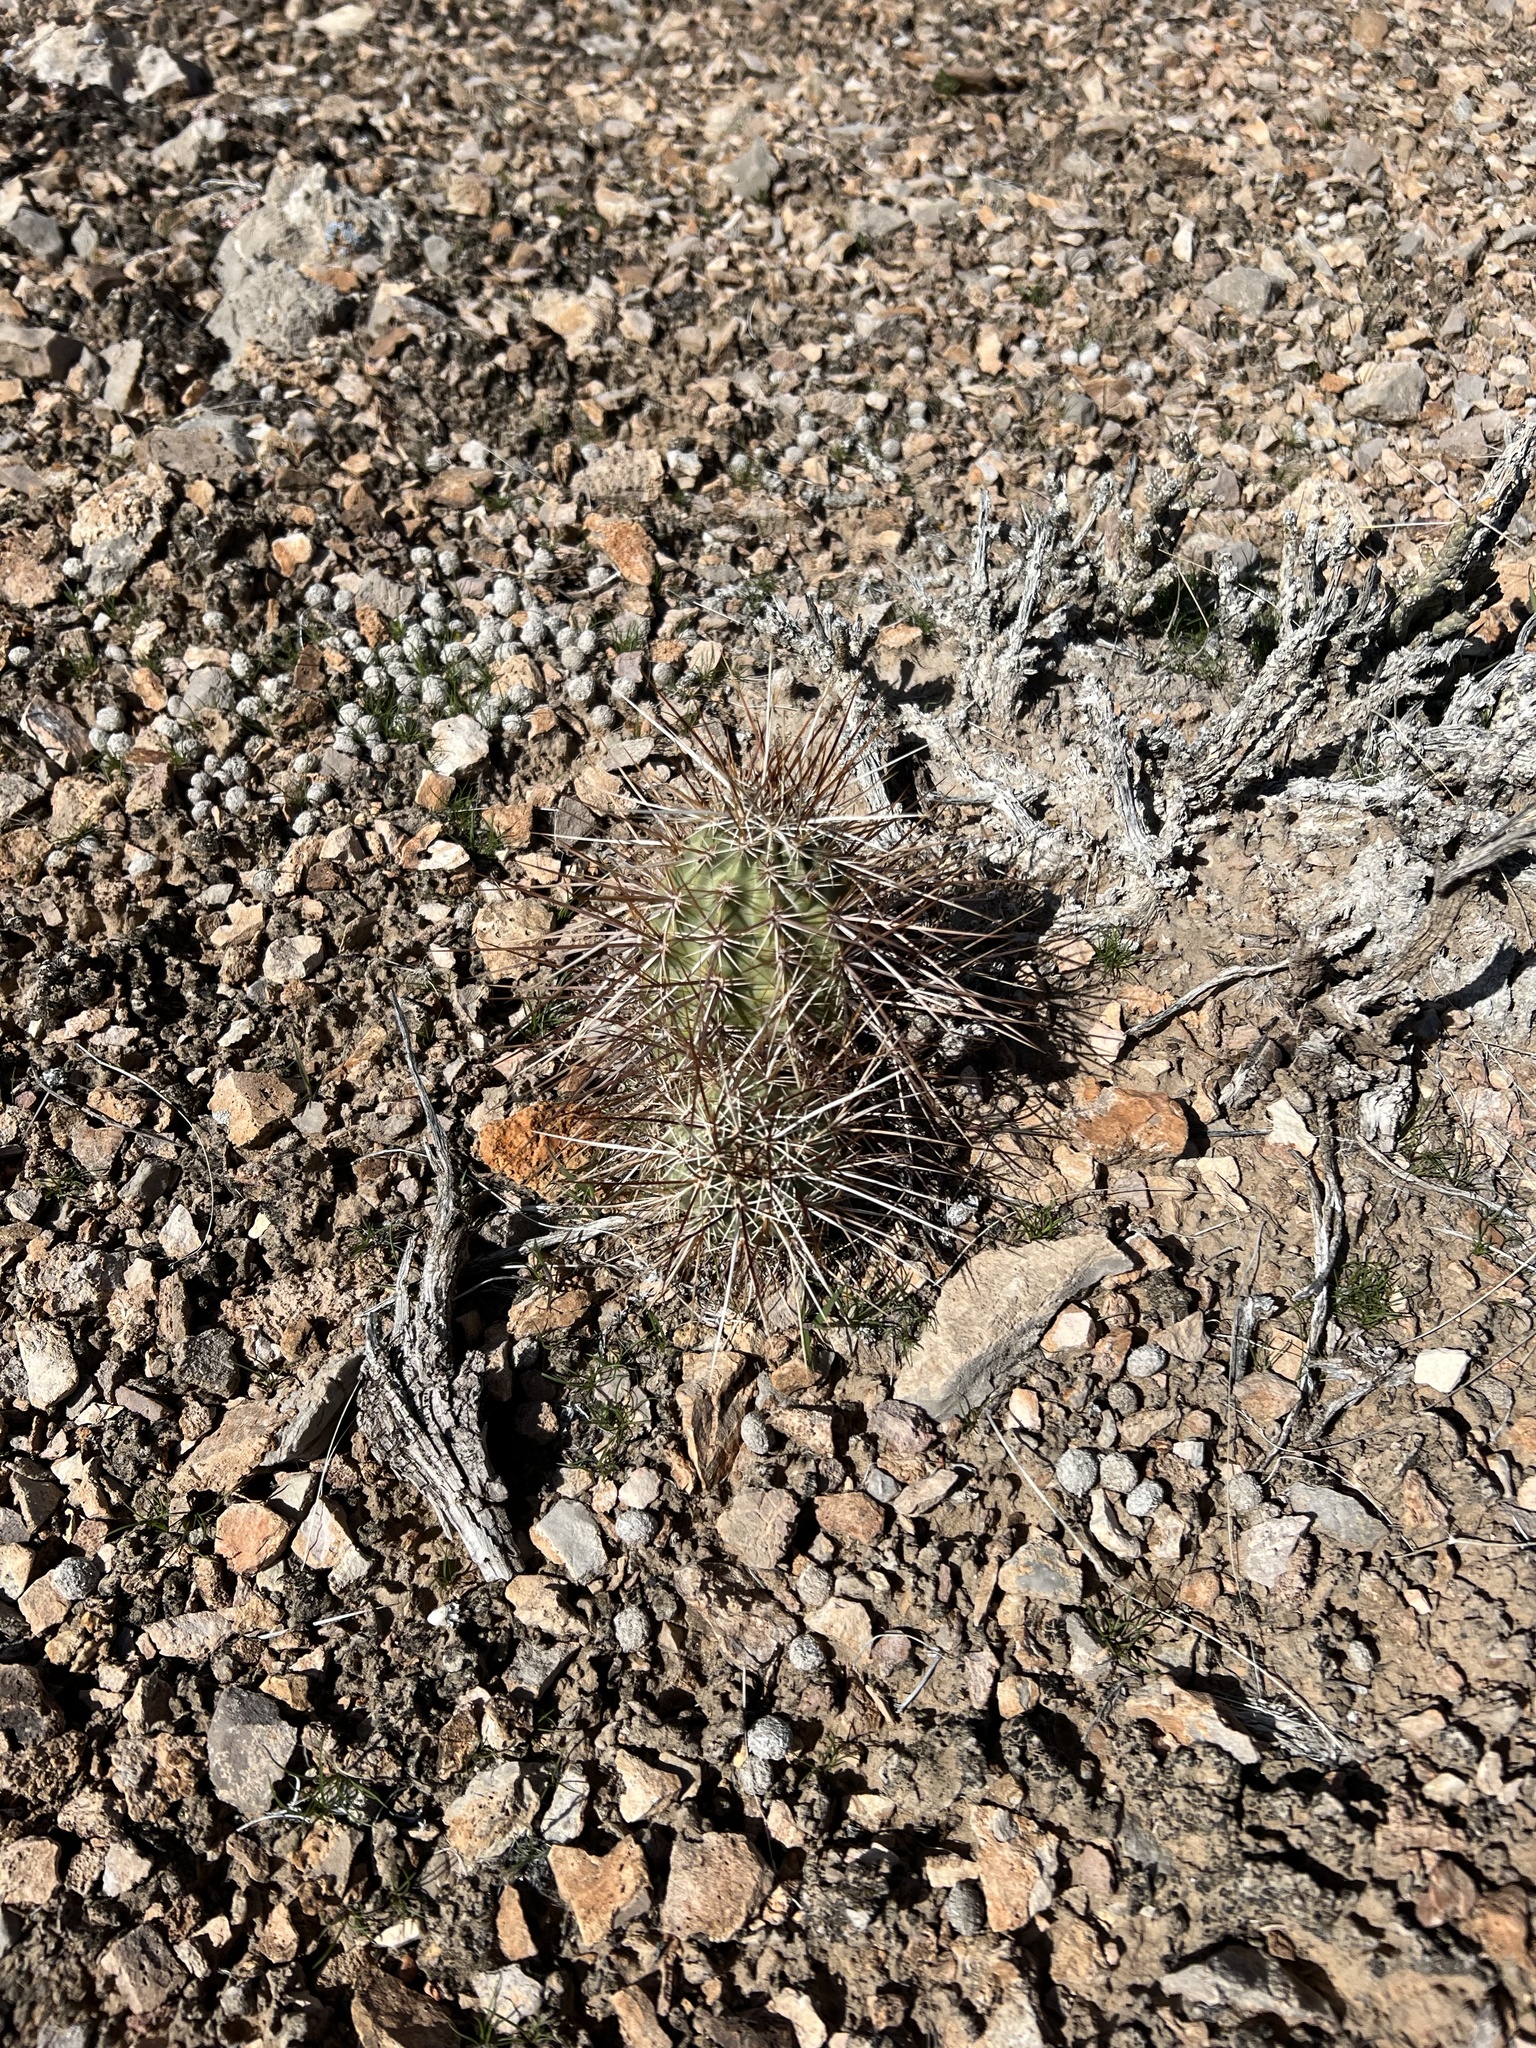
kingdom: Plantae
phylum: Tracheophyta
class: Magnoliopsida
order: Caryophyllales
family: Cactaceae
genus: Echinocereus
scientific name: Echinocereus engelmannii
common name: Engelmann's hedgehog cactus
